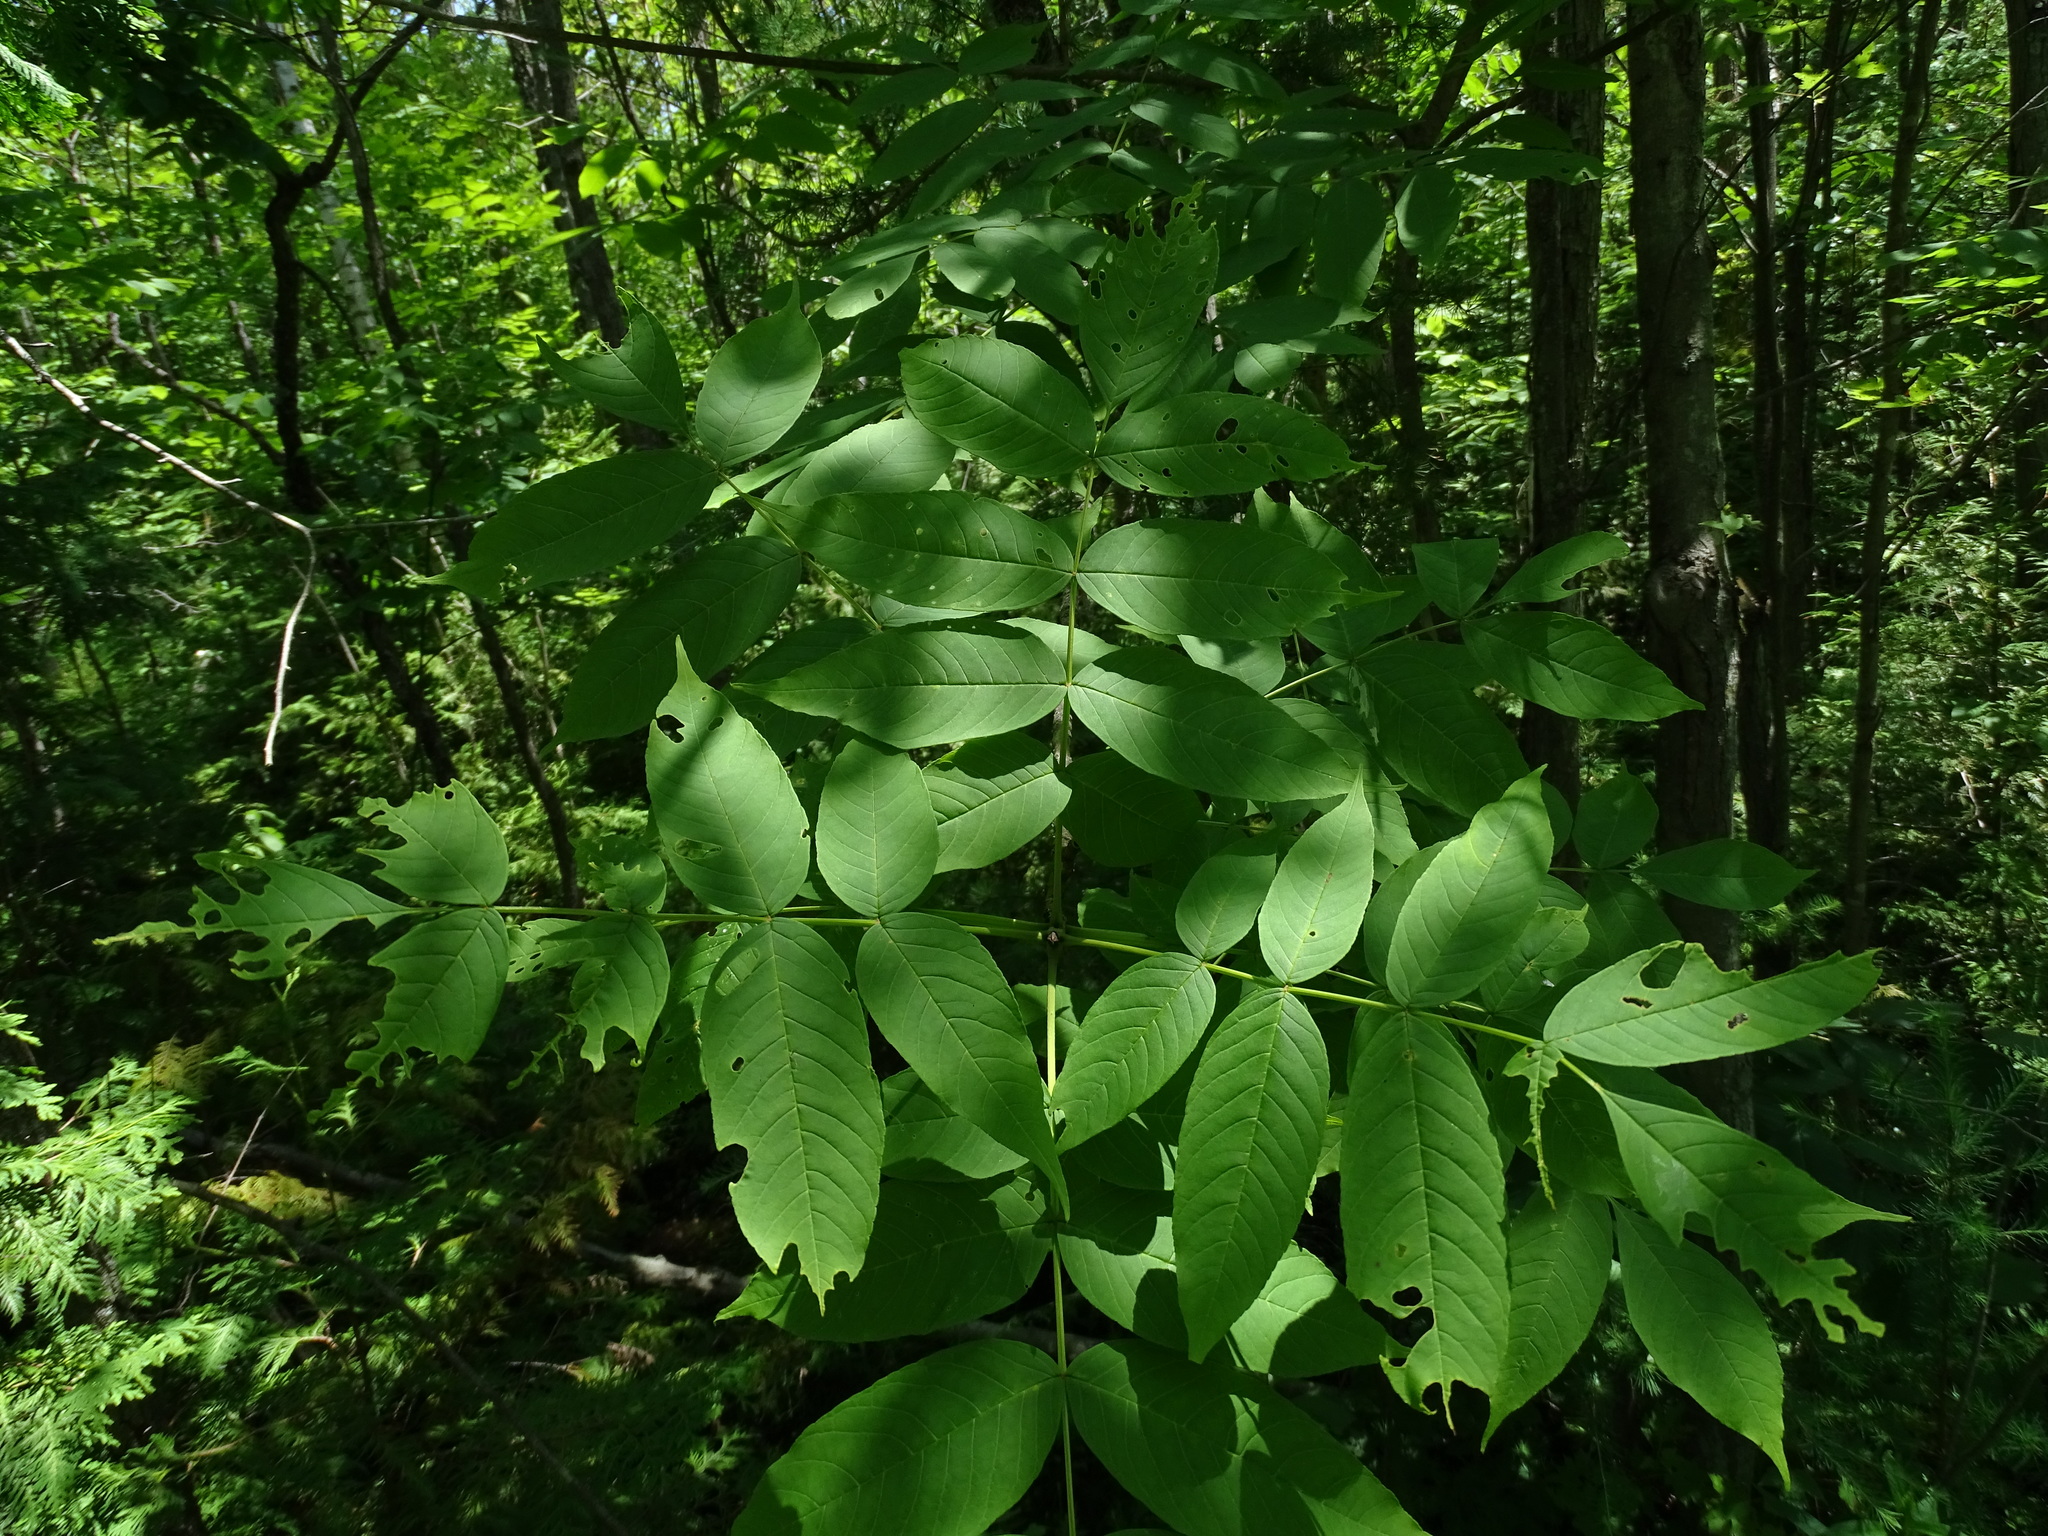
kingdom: Plantae
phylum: Tracheophyta
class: Magnoliopsida
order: Lamiales
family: Oleaceae
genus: Fraxinus
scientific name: Fraxinus nigra
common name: Black ash
